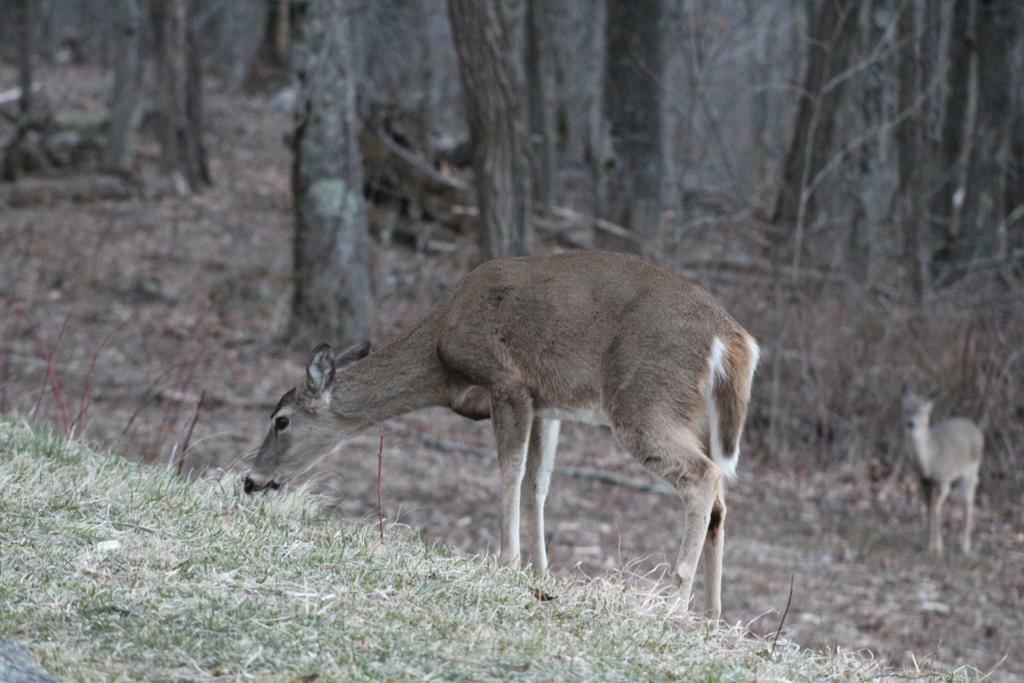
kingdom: Animalia
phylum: Chordata
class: Mammalia
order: Artiodactyla
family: Cervidae
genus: Odocoileus
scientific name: Odocoileus virginianus
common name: White-tailed deer
